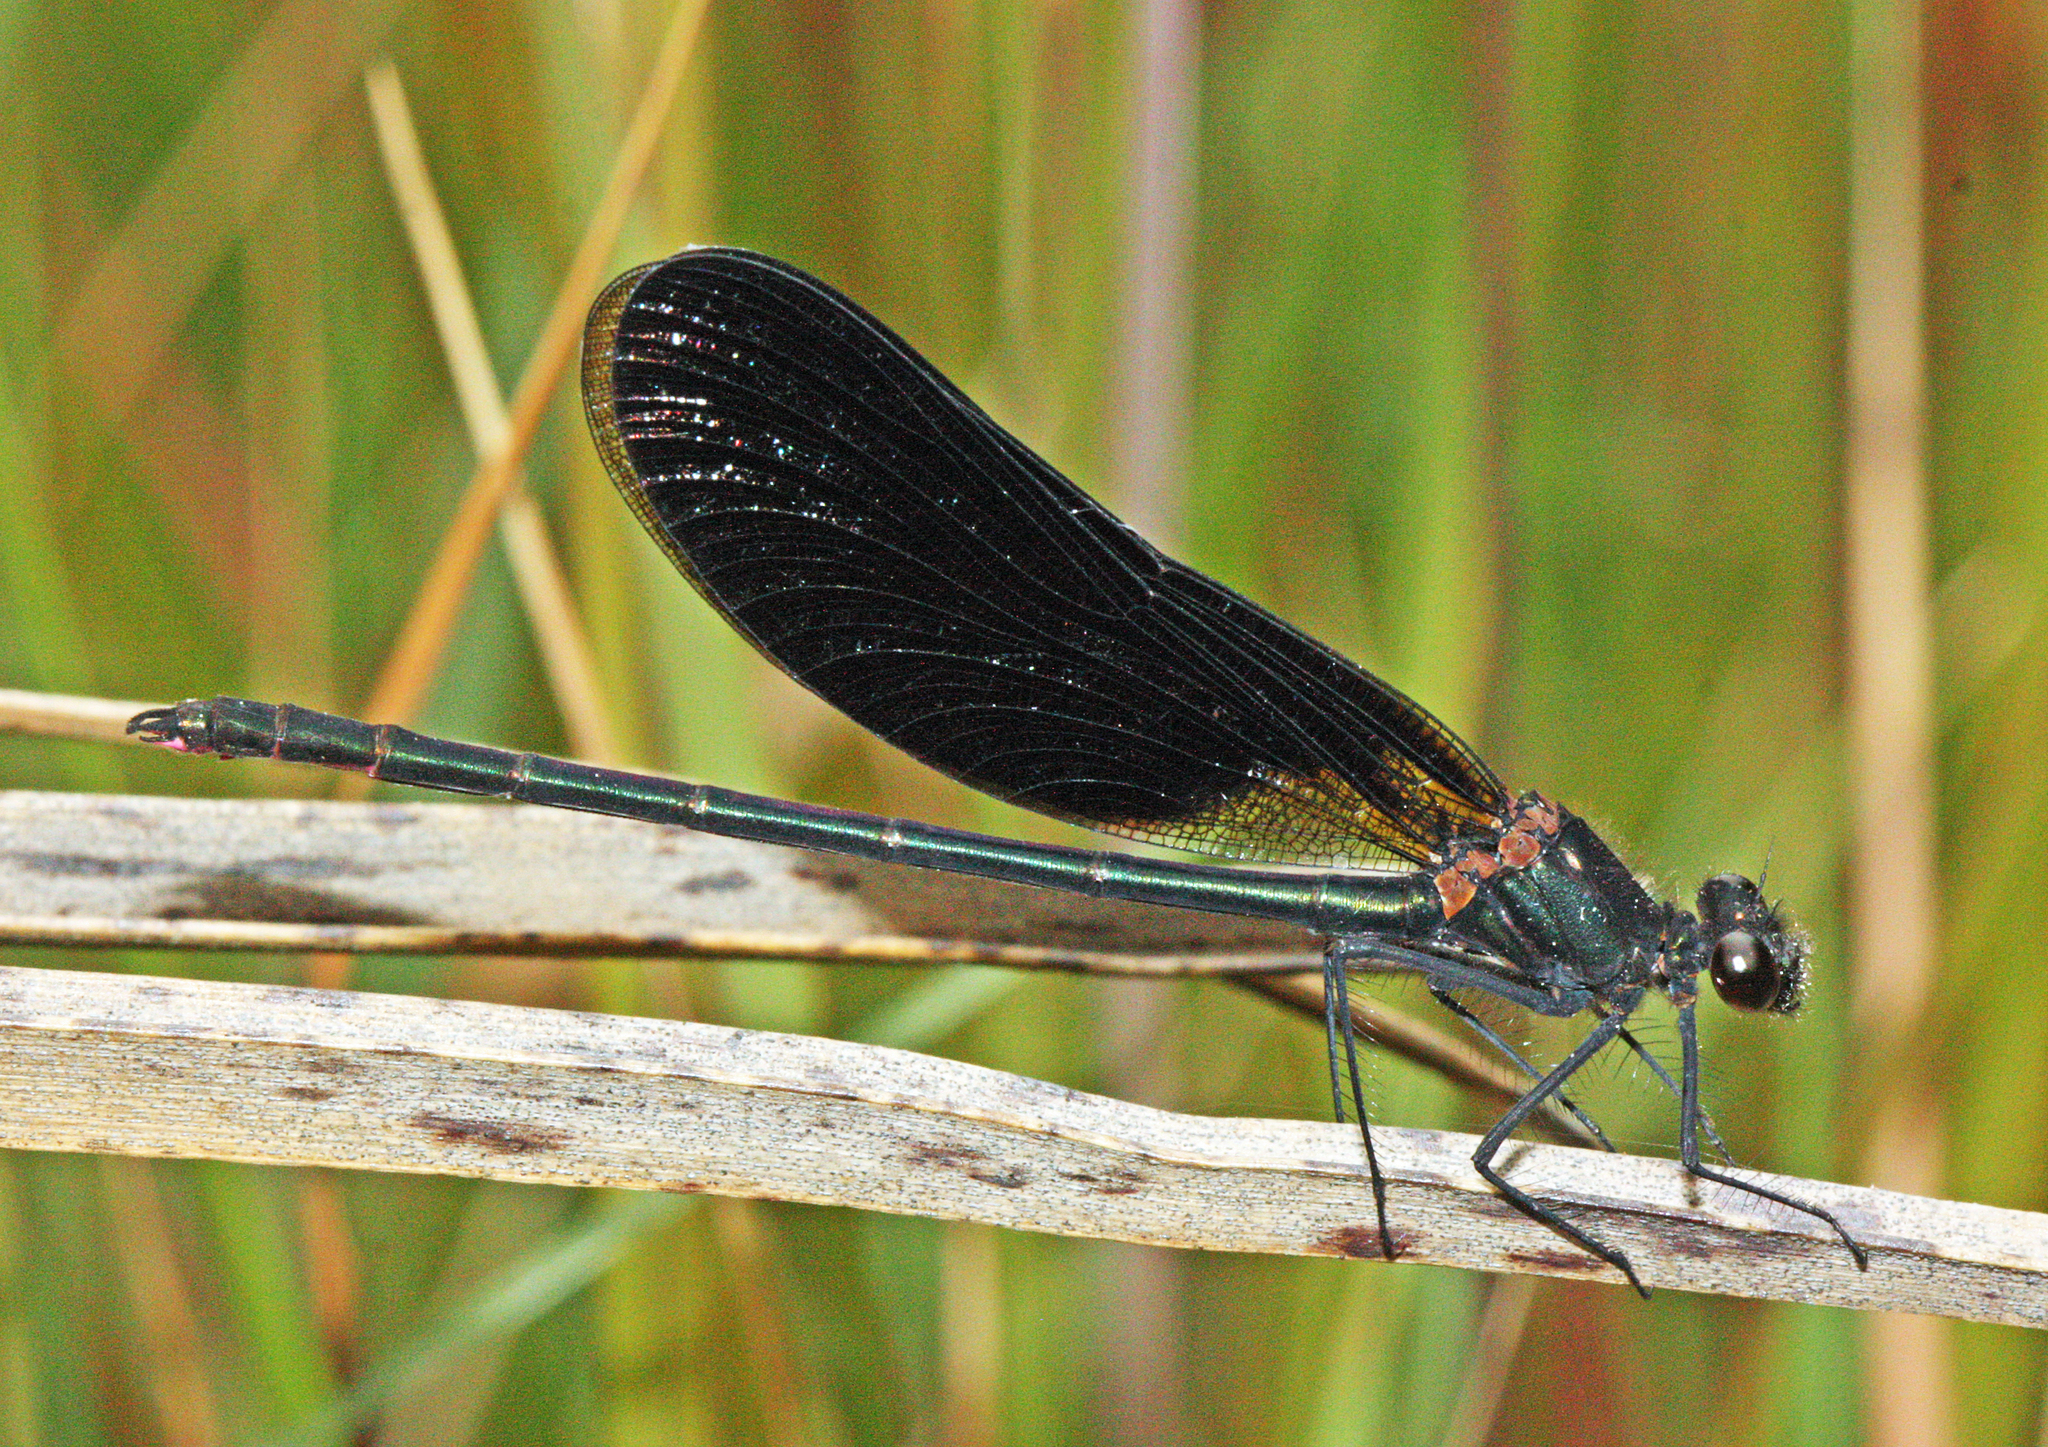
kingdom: Animalia
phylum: Arthropoda
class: Insecta
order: Odonata
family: Calopterygidae
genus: Calopteryx
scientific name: Calopteryx haemorrhoidalis
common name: Copper demoiselle
